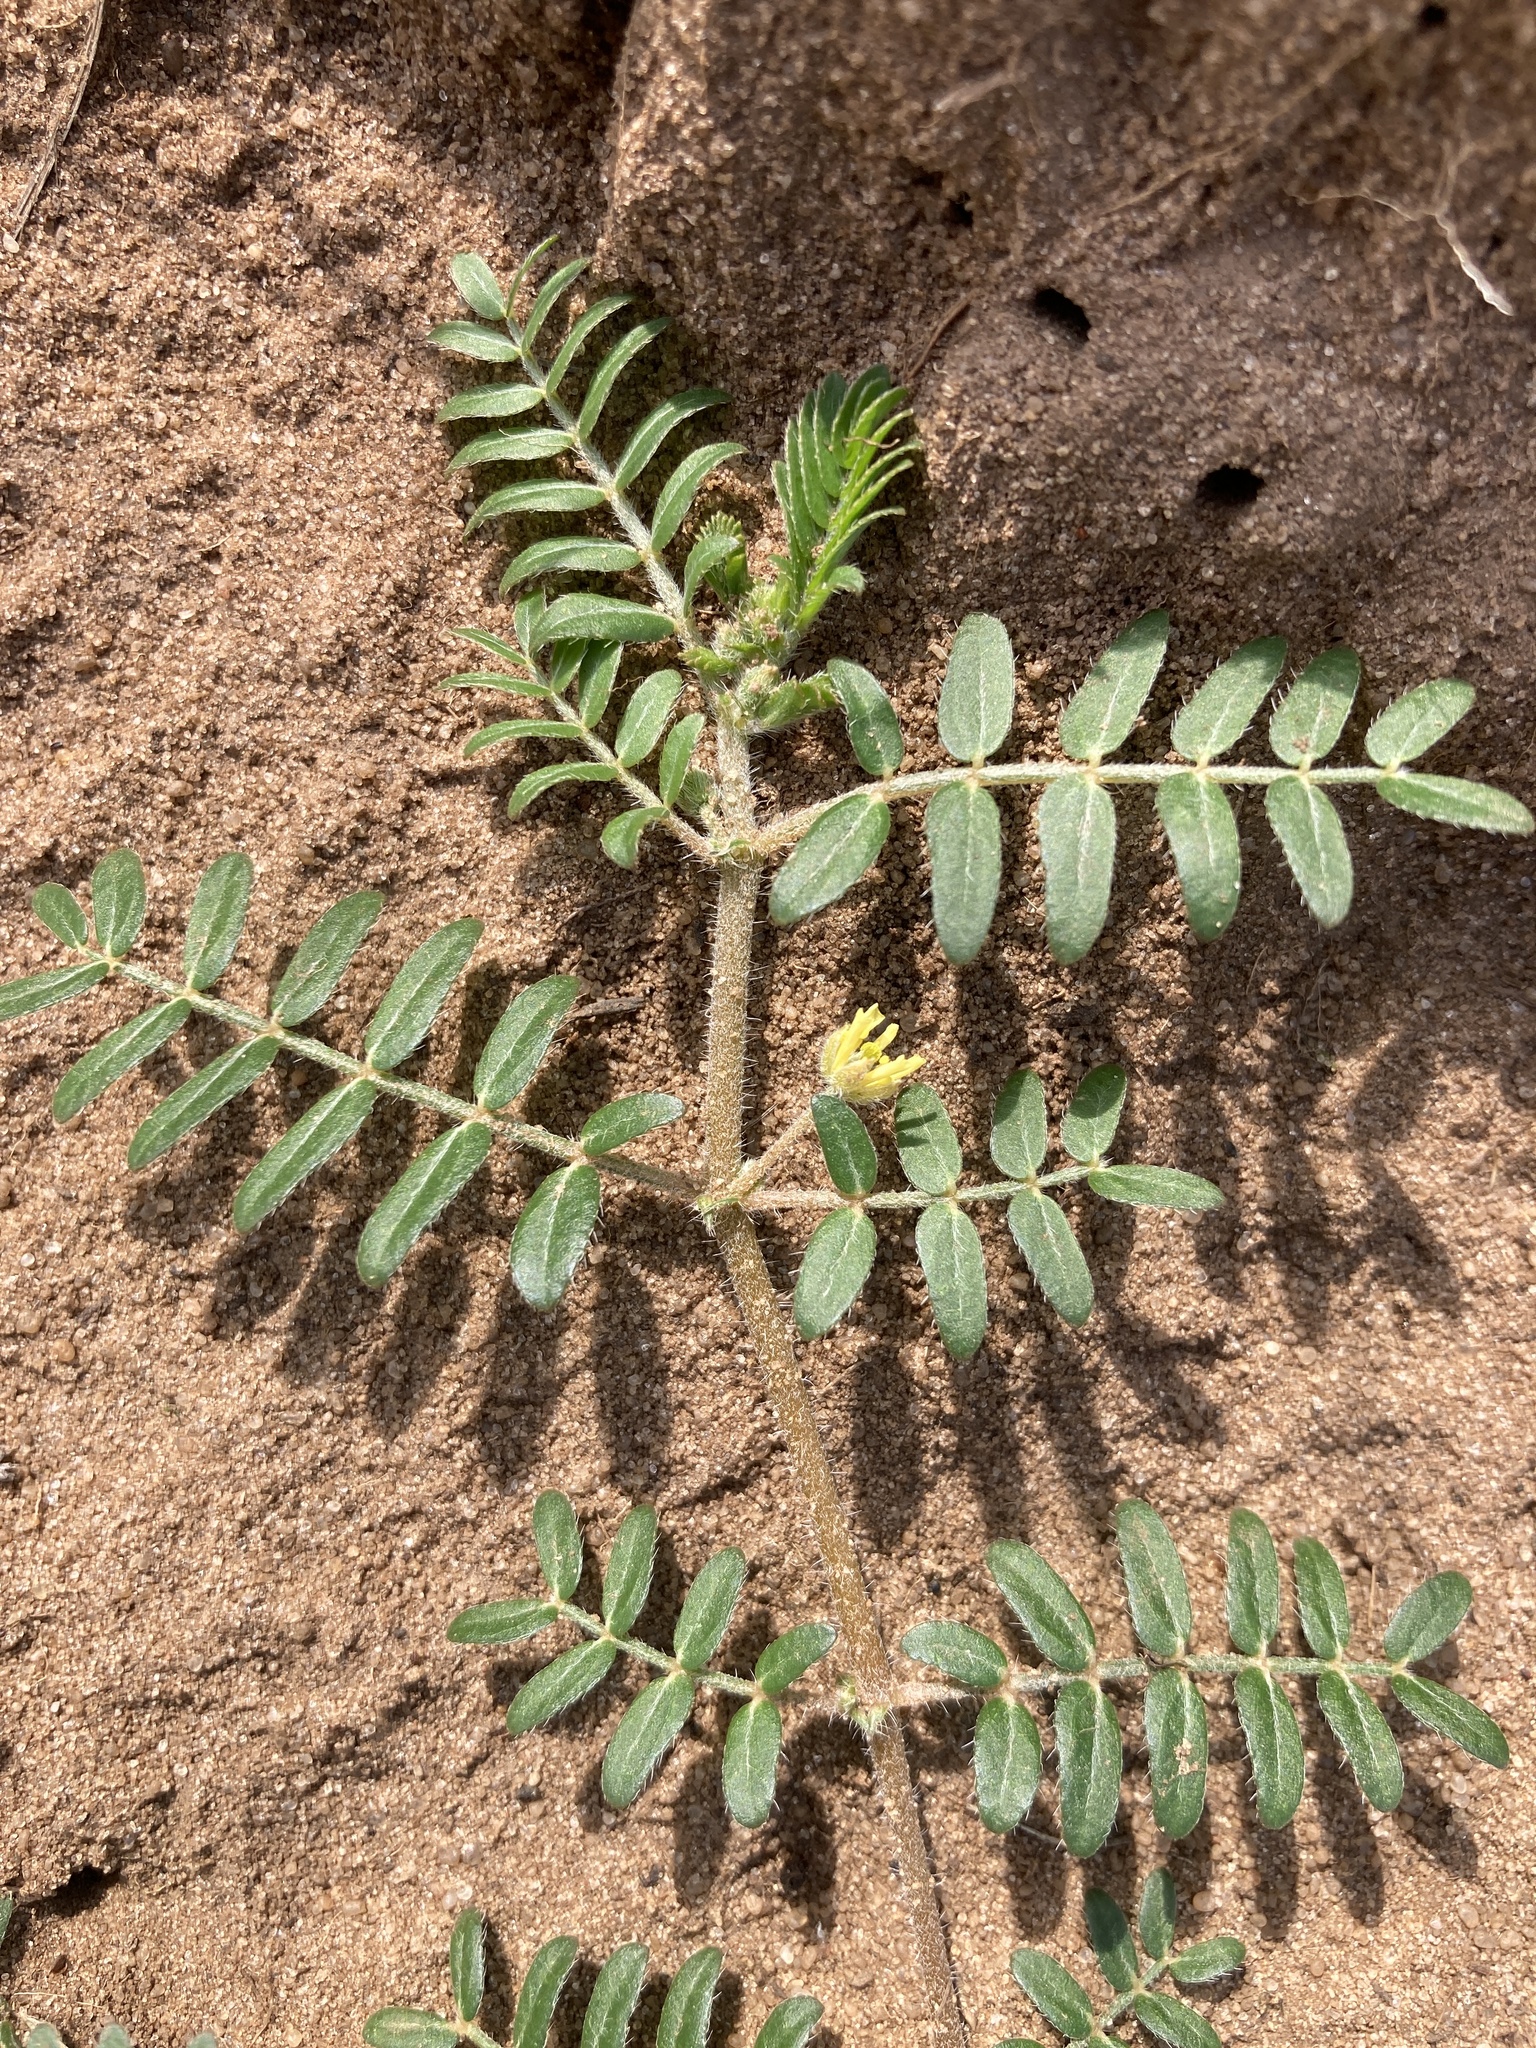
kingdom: Plantae
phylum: Tracheophyta
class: Magnoliopsida
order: Zygophyllales
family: Zygophyllaceae
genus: Tribulus
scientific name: Tribulus terrestris
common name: Puncturevine
